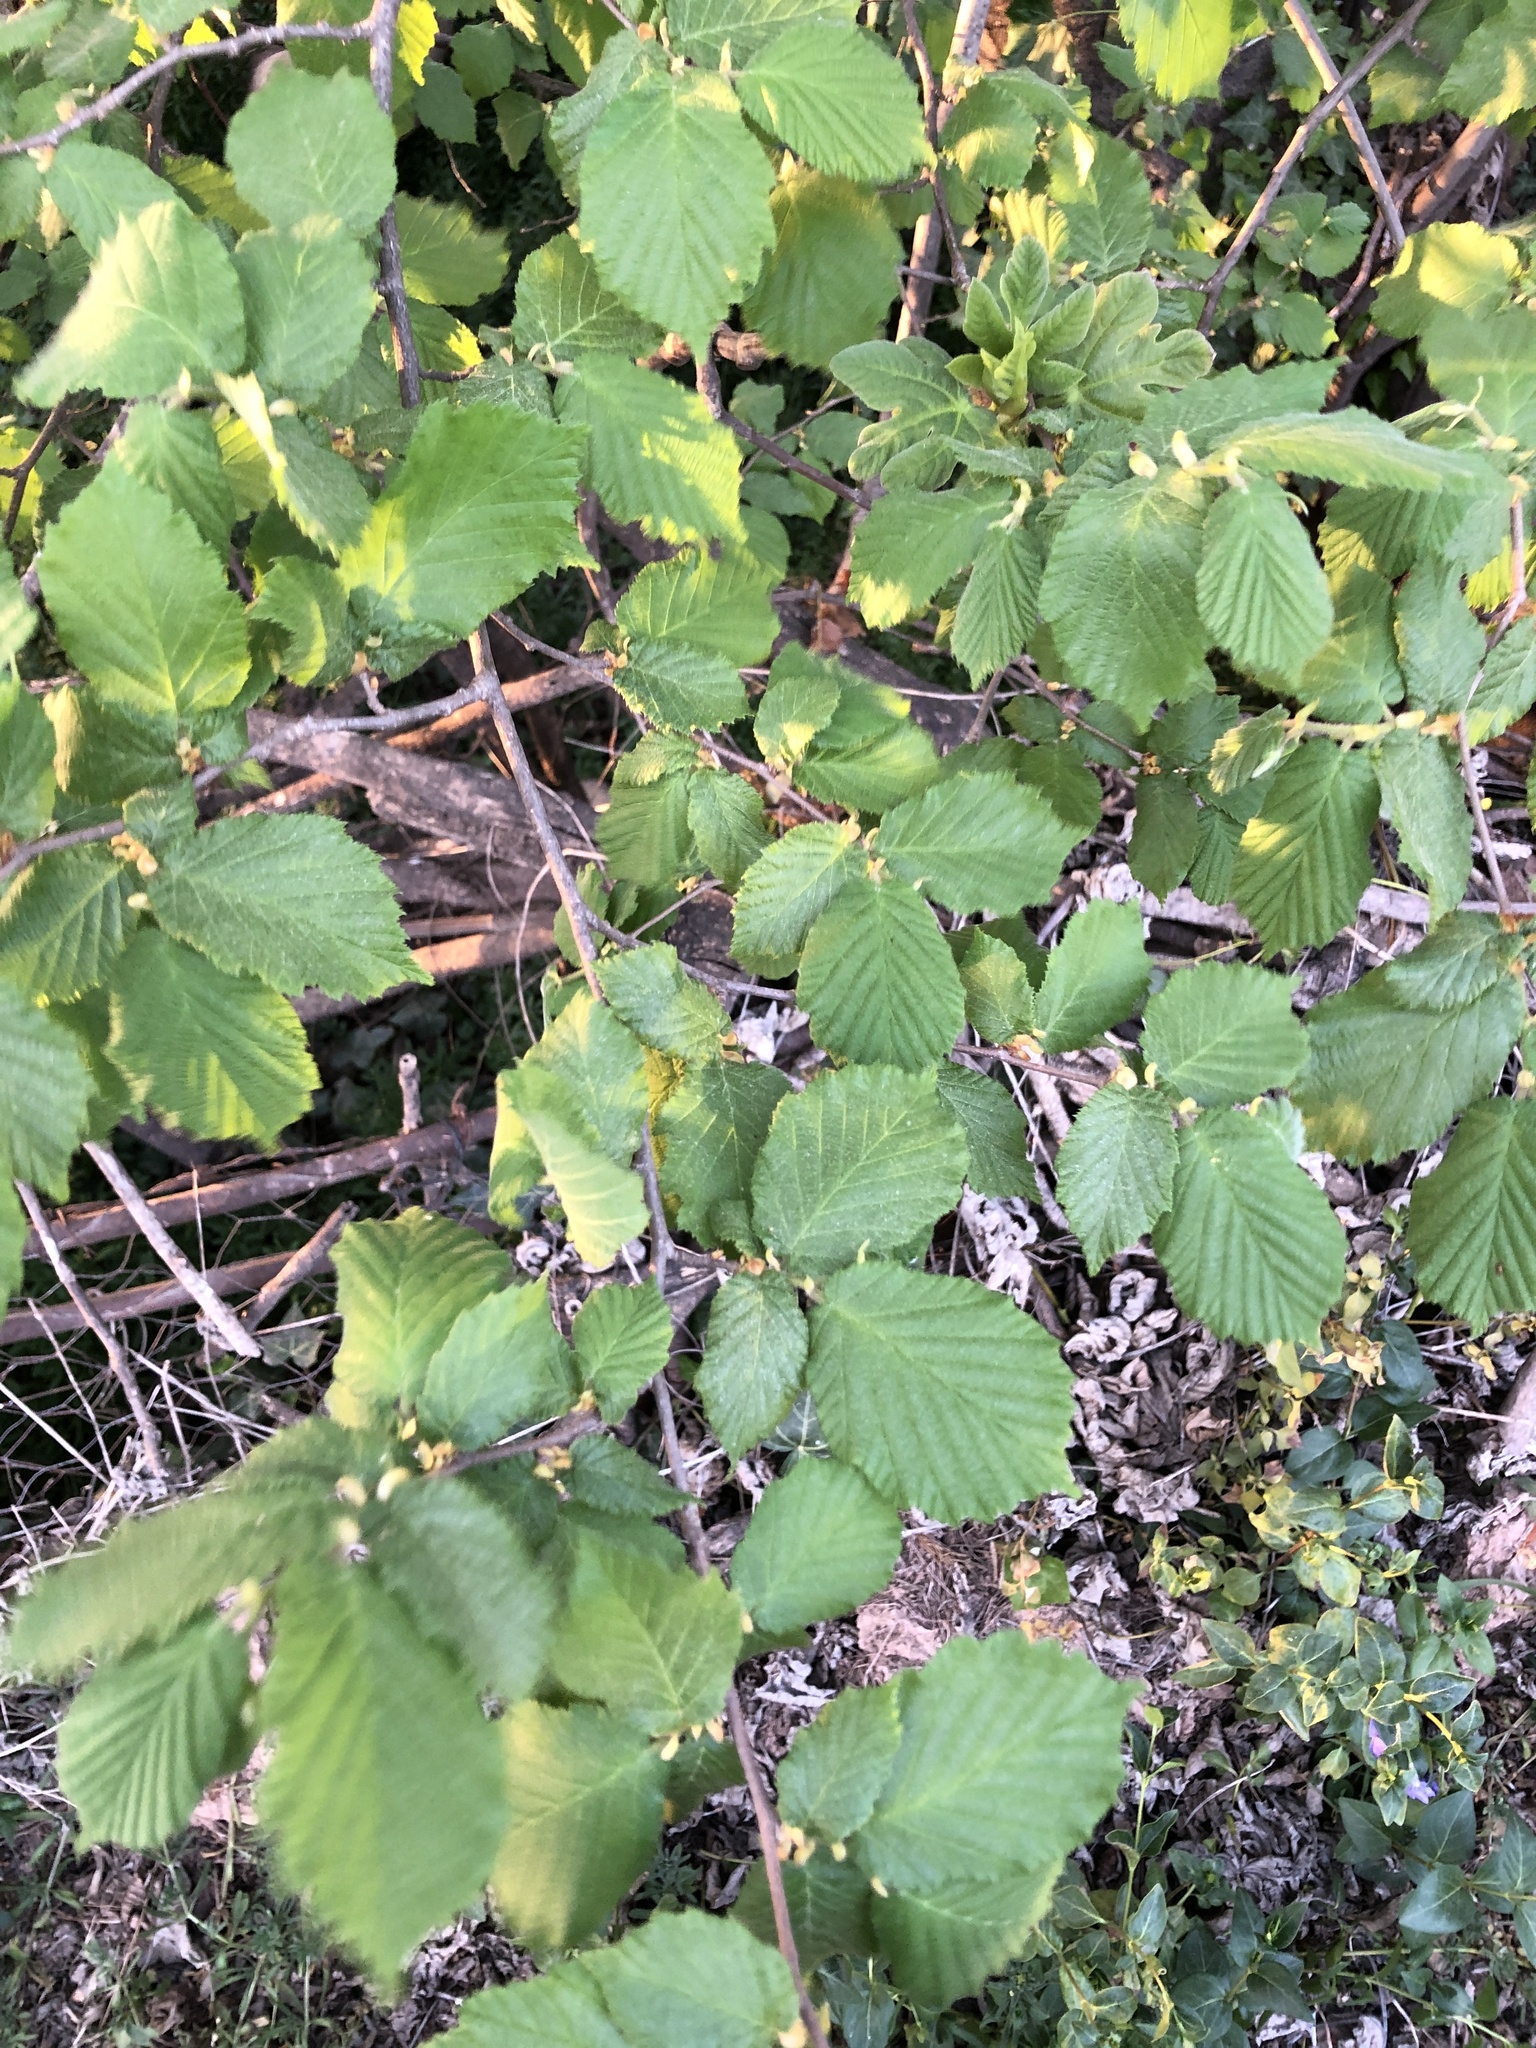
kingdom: Plantae
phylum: Tracheophyta
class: Magnoliopsida
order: Fagales
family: Betulaceae
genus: Corylus
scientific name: Corylus avellana
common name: European hazel
